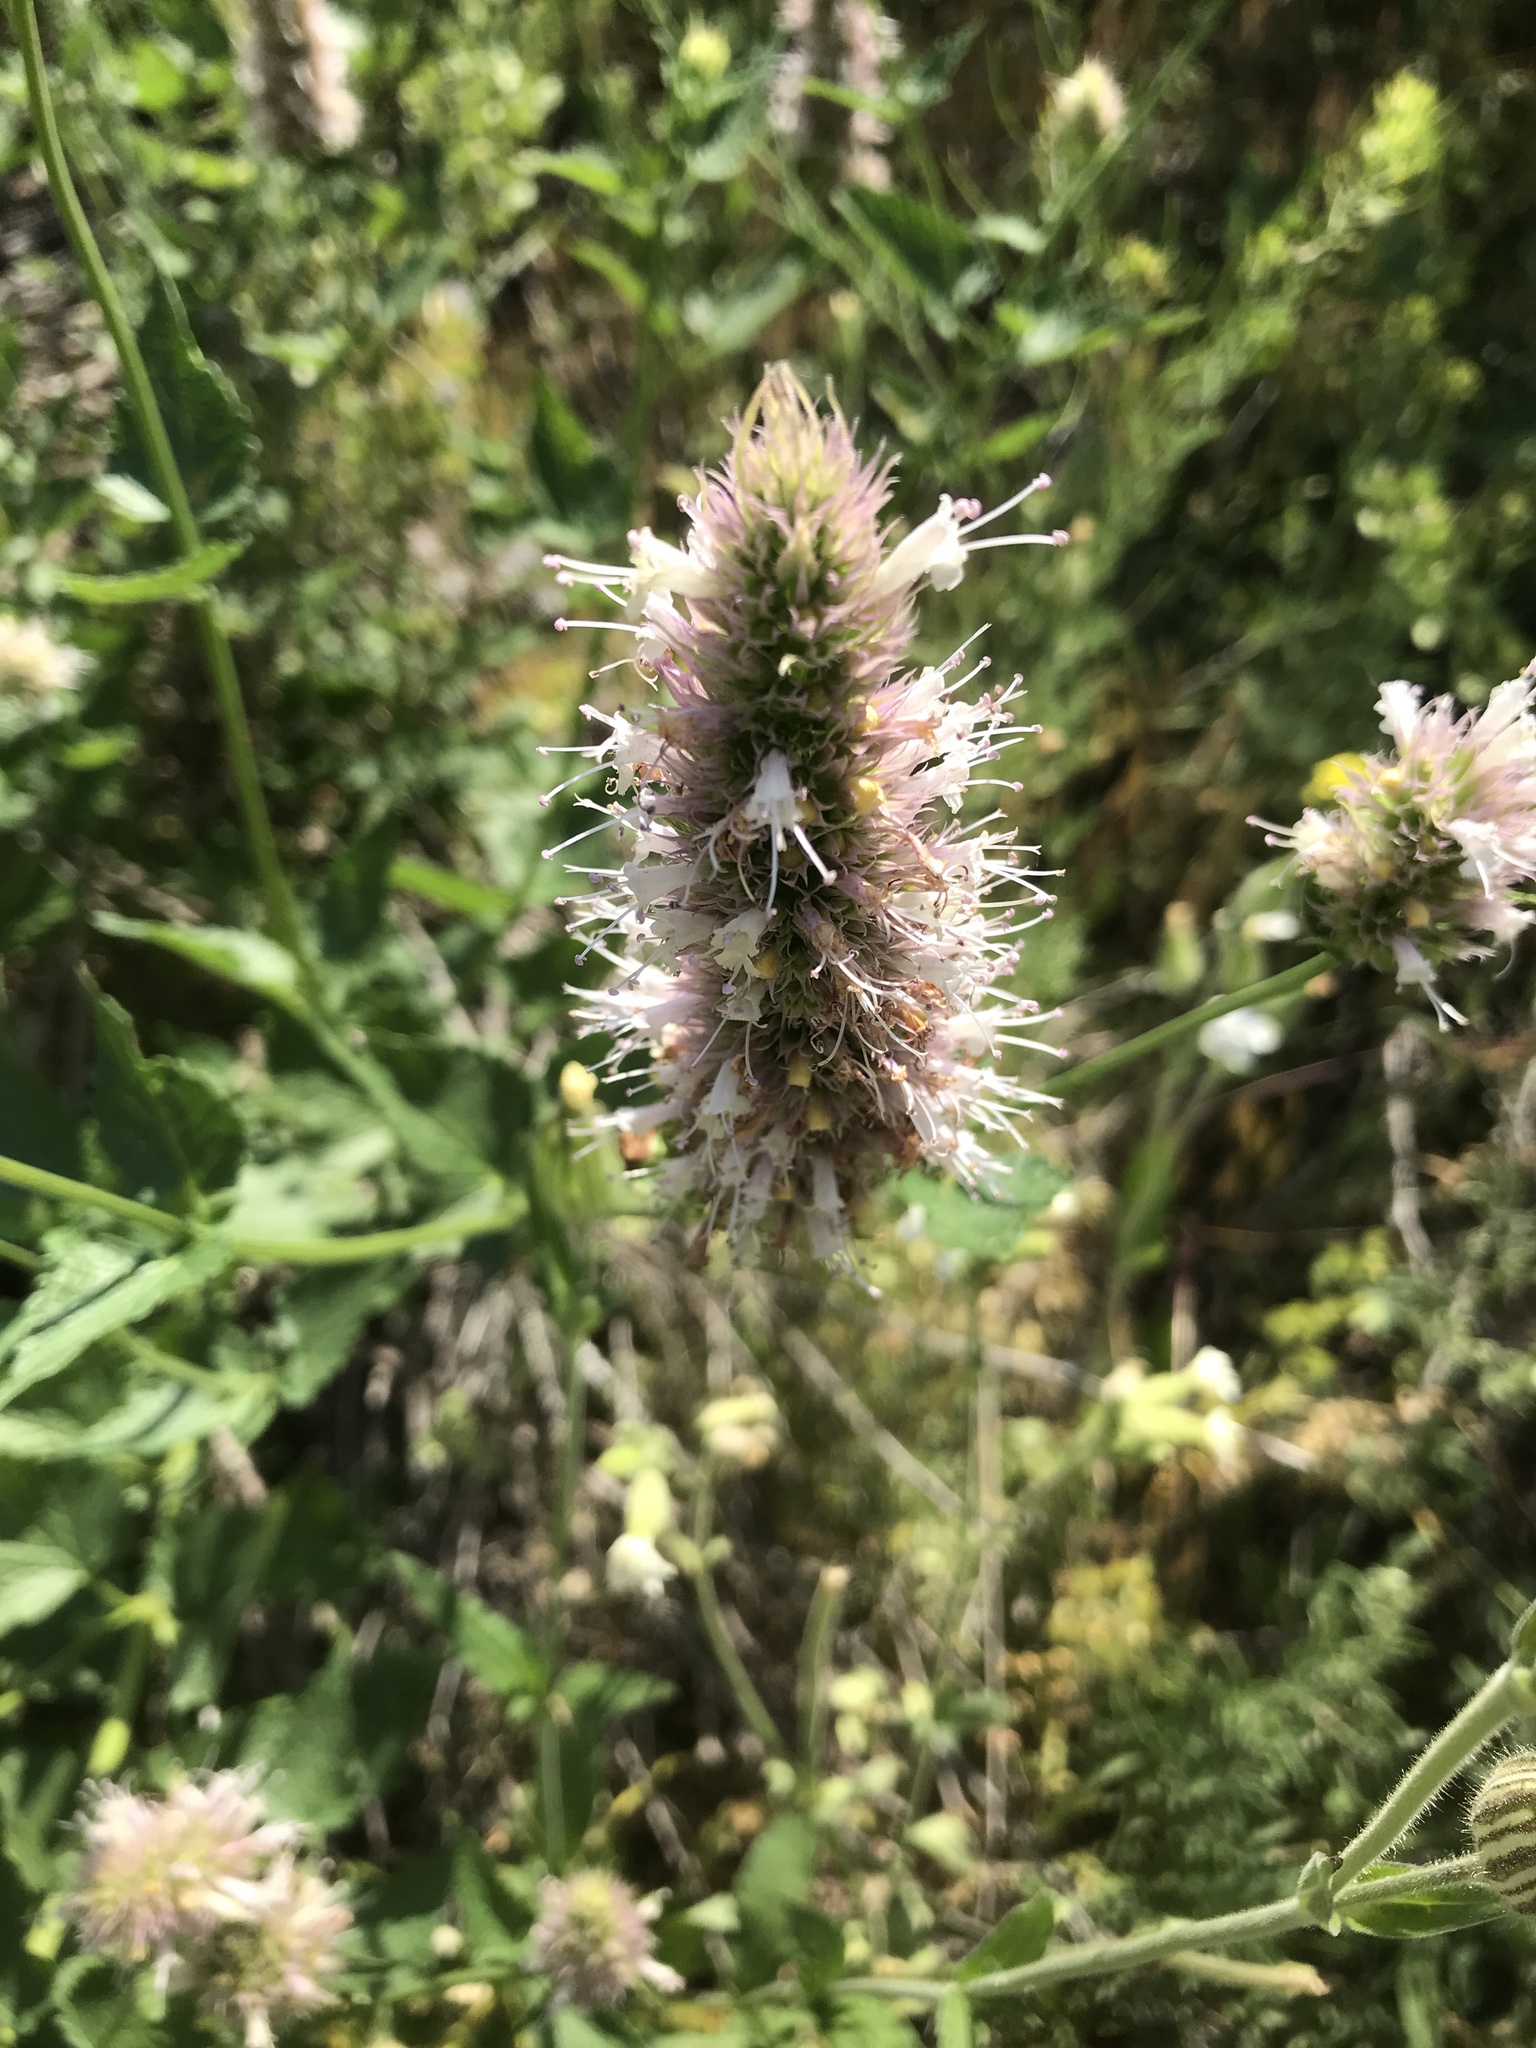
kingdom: Plantae
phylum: Tracheophyta
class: Magnoliopsida
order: Lamiales
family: Lamiaceae
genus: Agastache
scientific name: Agastache urticifolia
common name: Horsemint giant hyssop
